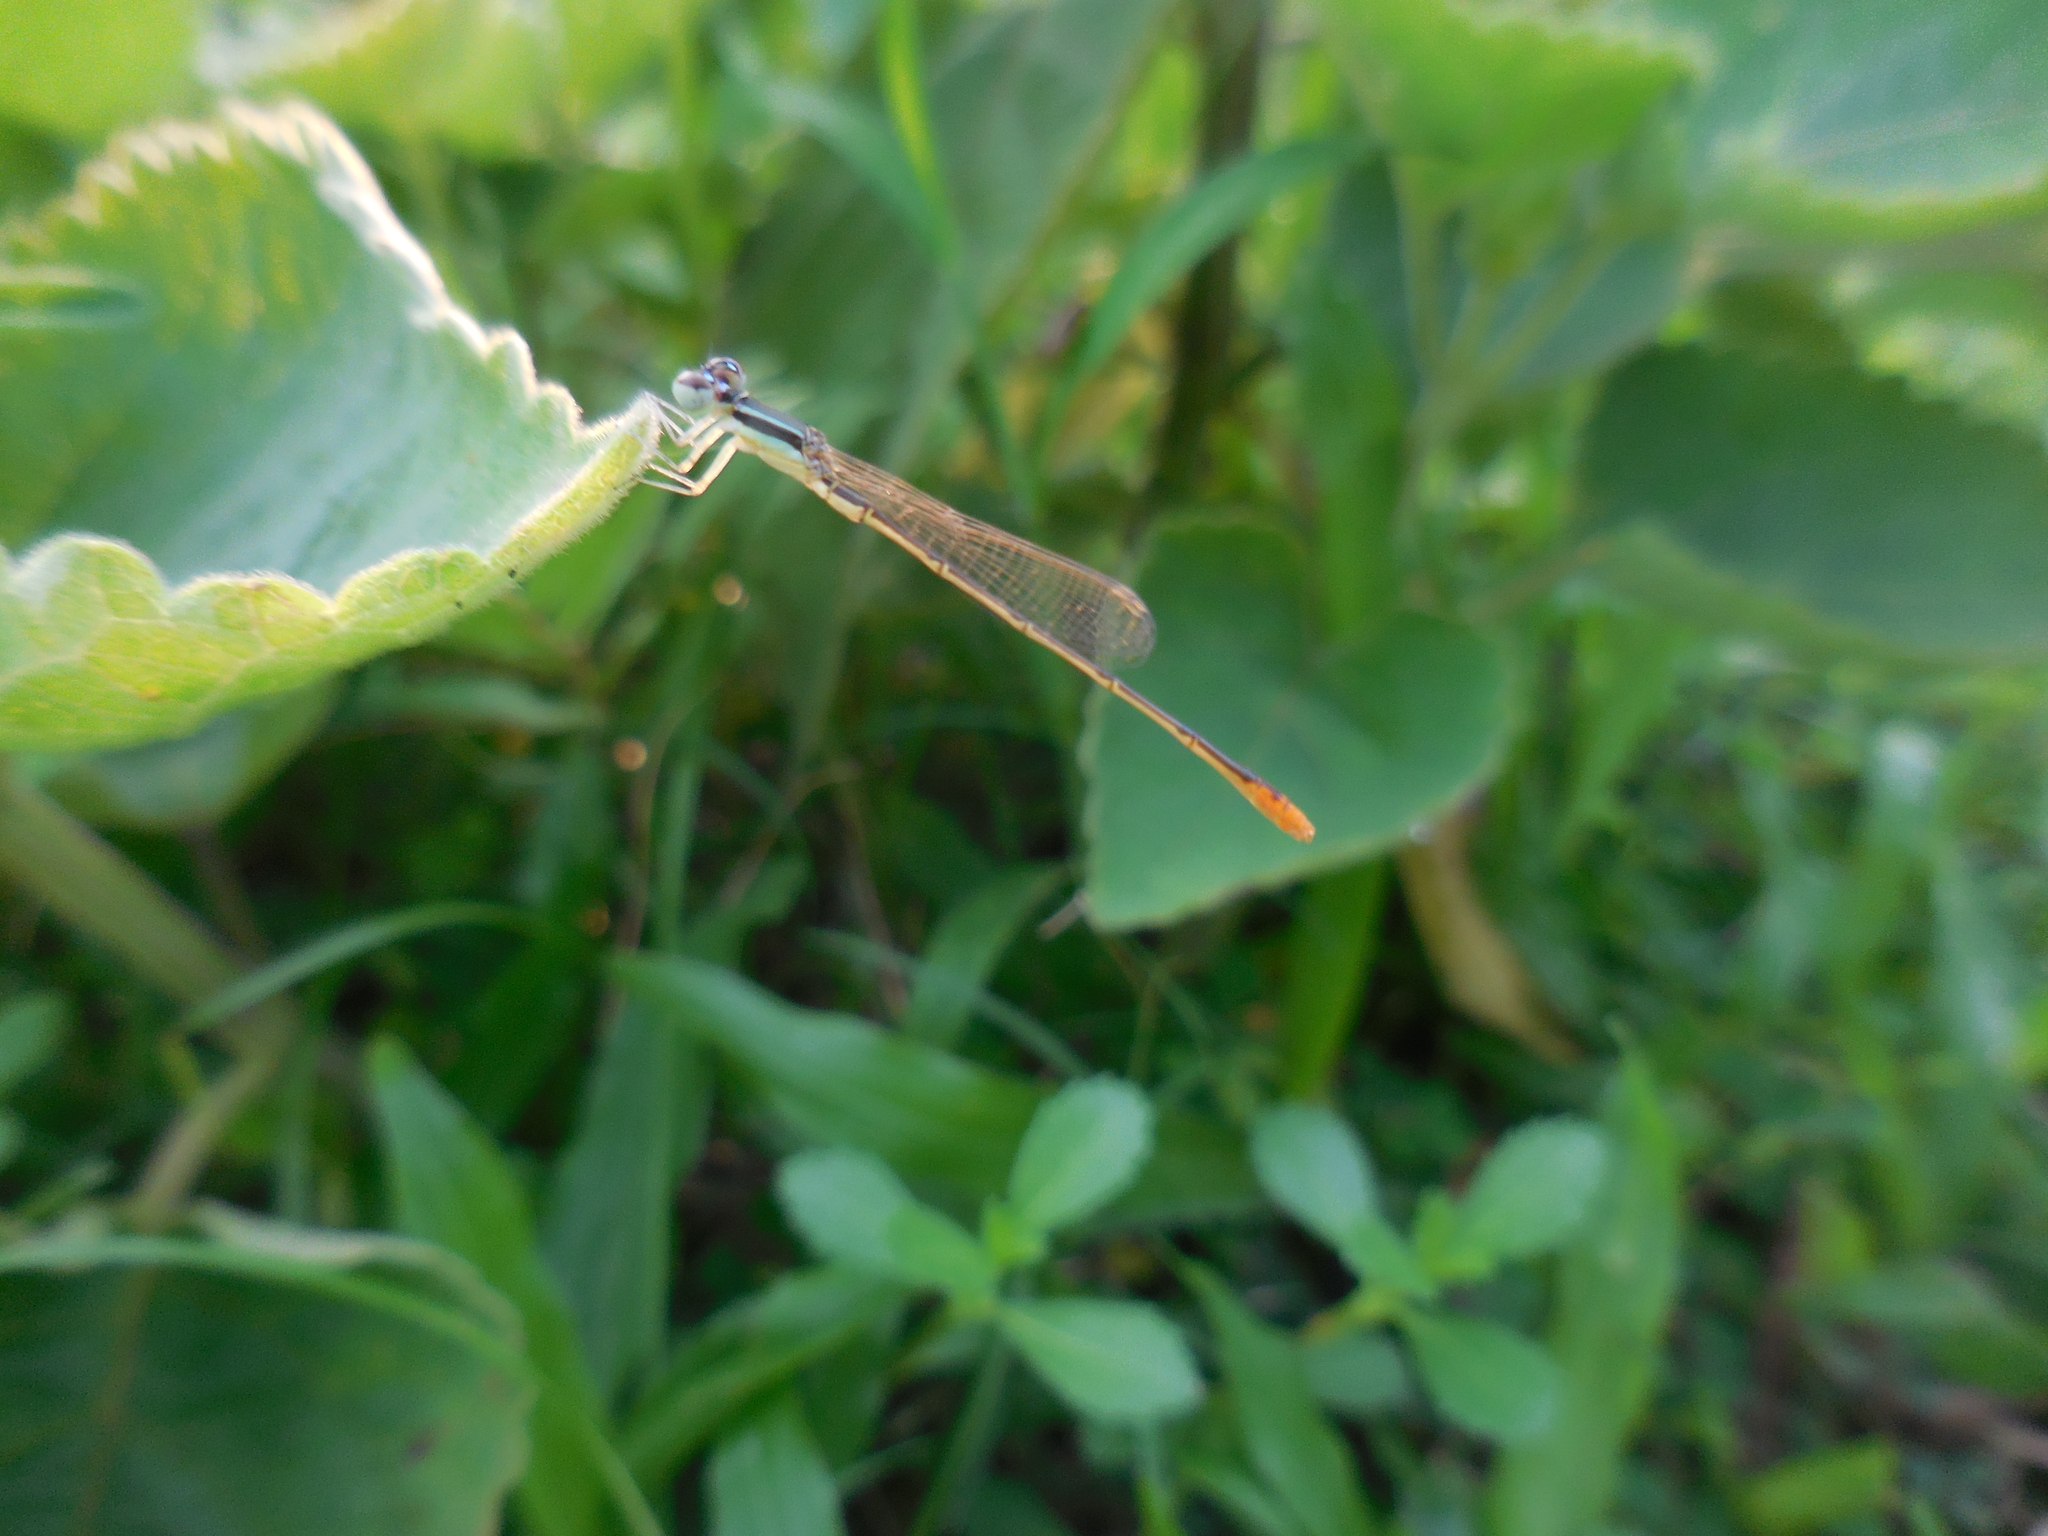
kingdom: Animalia
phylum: Arthropoda
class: Insecta
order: Odonata
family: Coenagrionidae
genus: Agriocnemis
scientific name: Agriocnemis pygmaea
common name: Pygmy wisp
